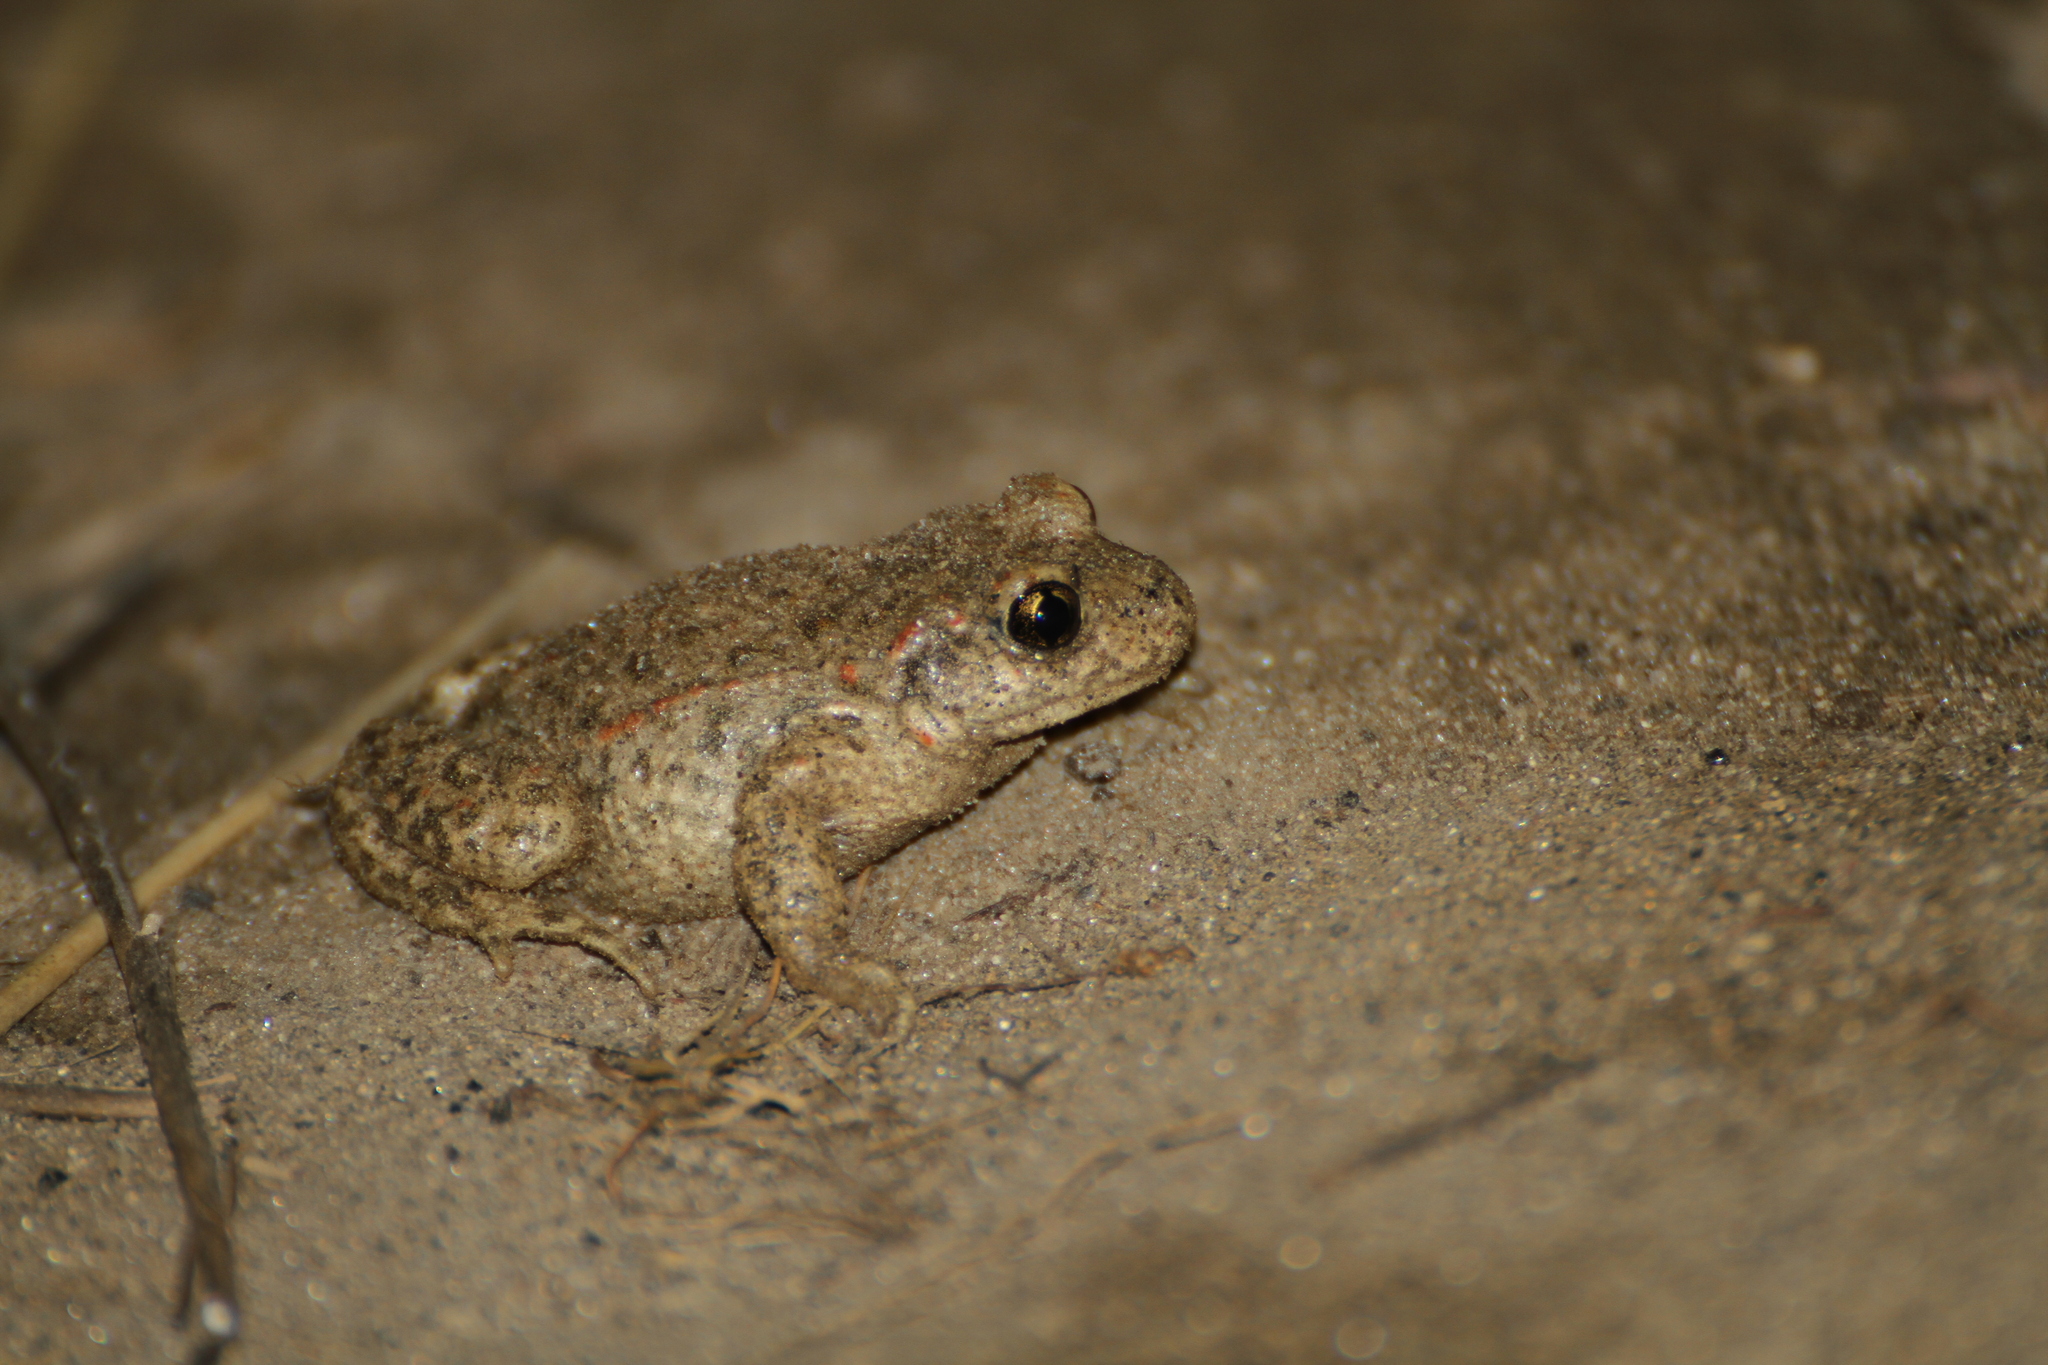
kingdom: Animalia
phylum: Chordata
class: Amphibia
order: Anura
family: Alytidae
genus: Alytes
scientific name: Alytes obstetricans
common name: Midwife toad
